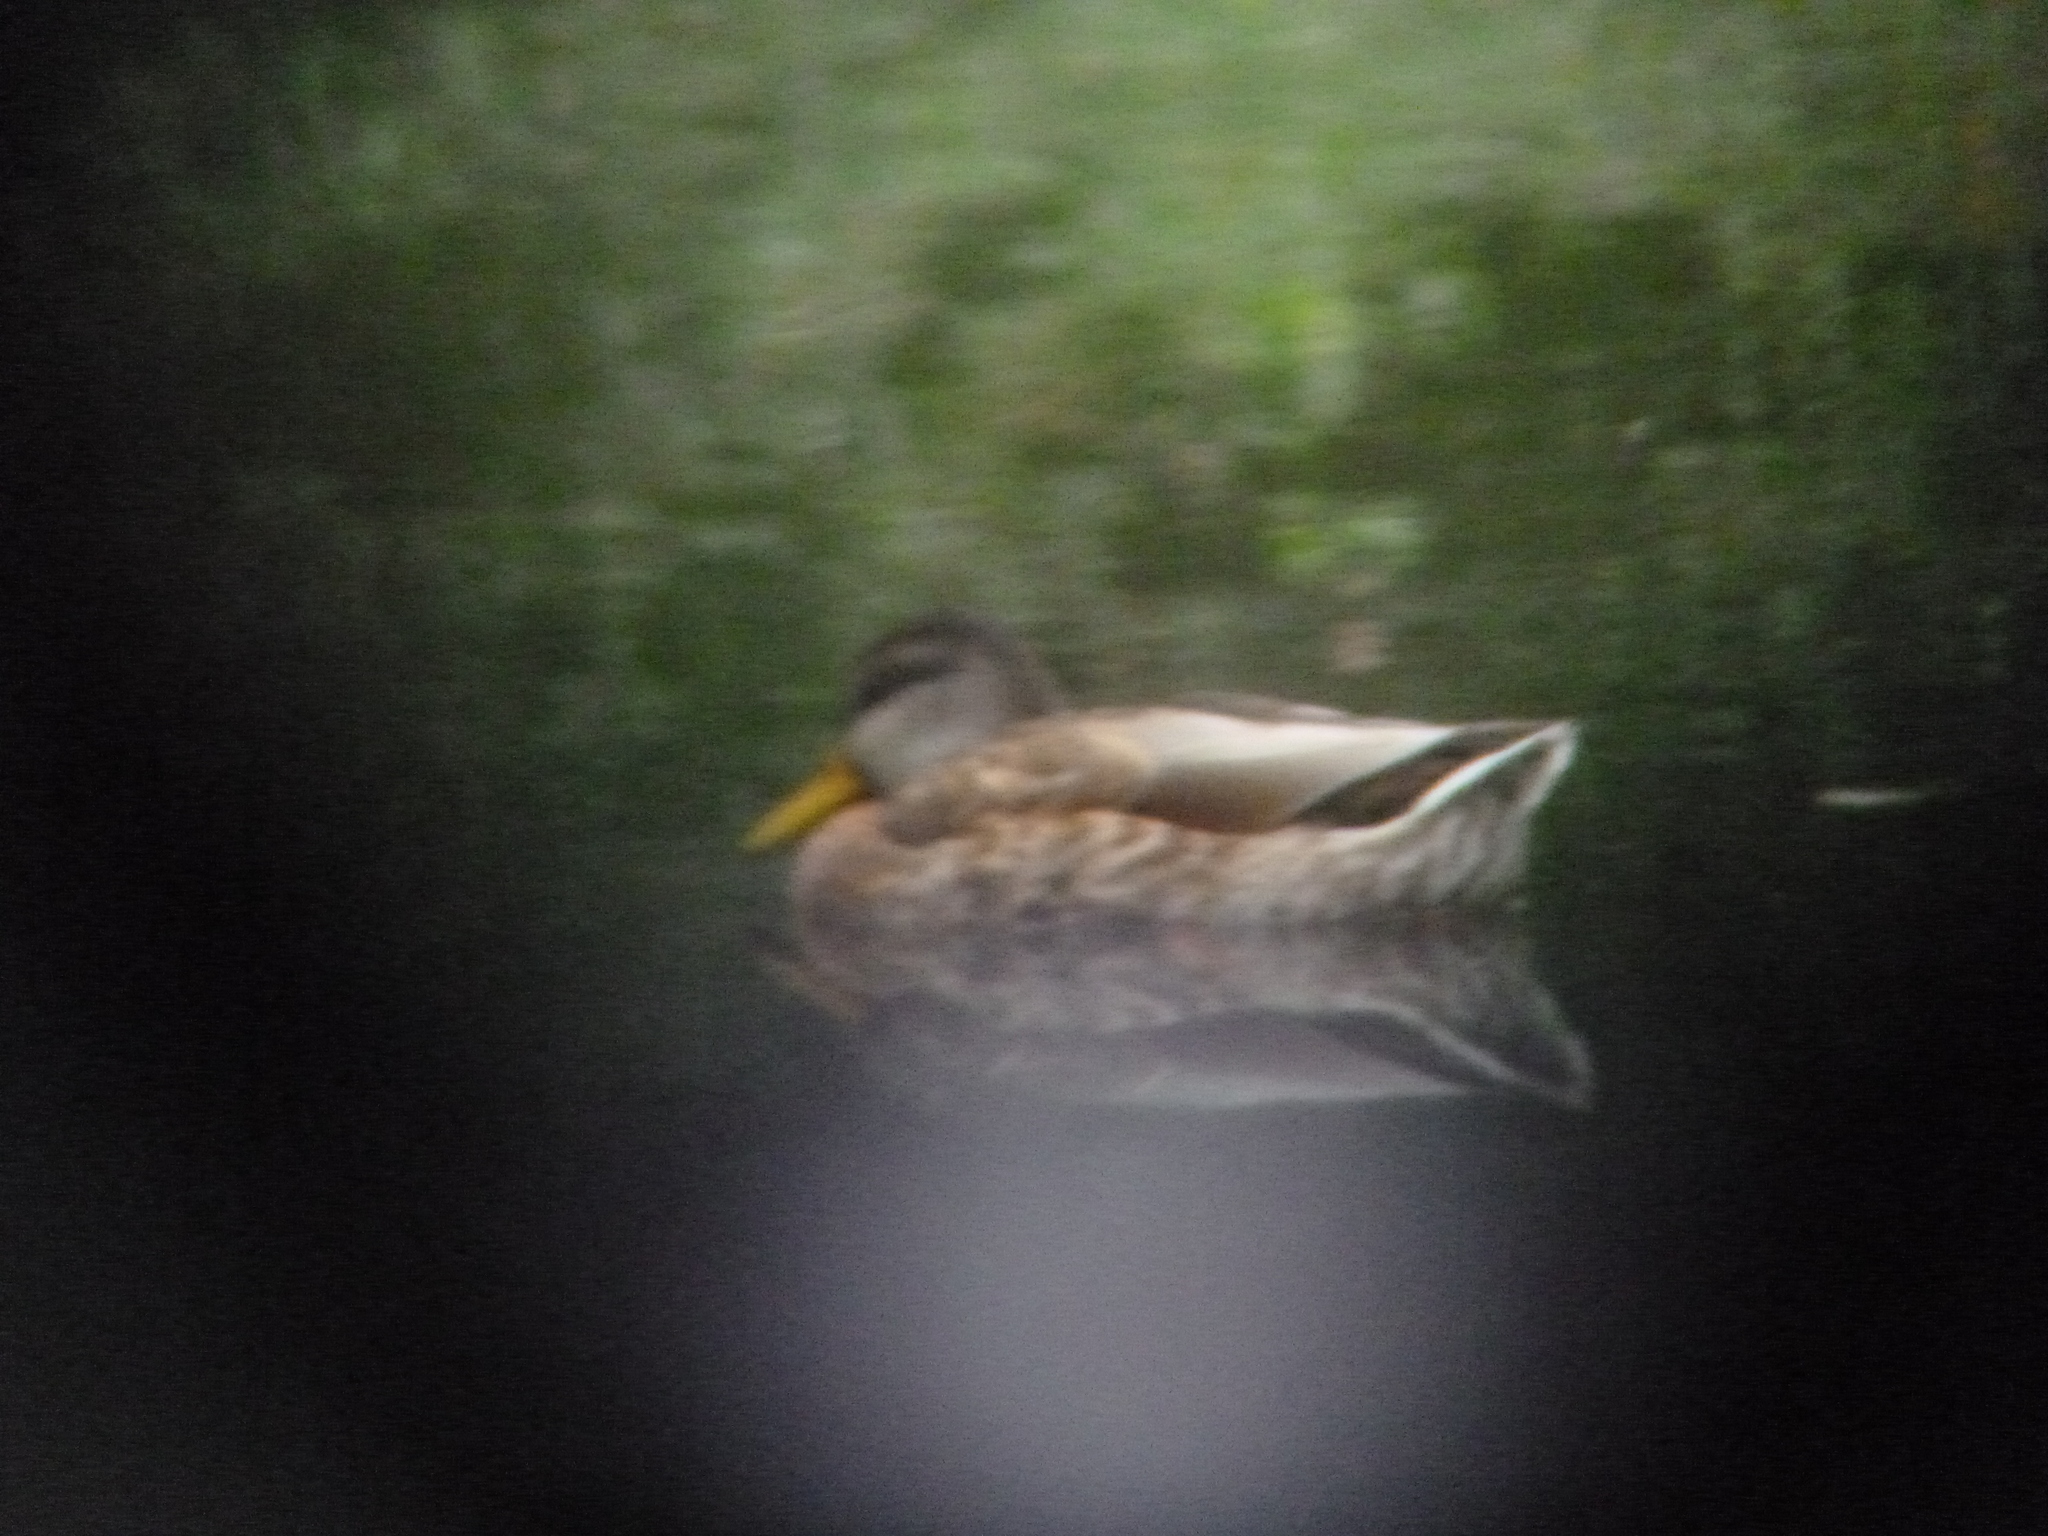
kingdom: Animalia
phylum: Chordata
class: Aves
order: Anseriformes
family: Anatidae
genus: Anas
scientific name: Anas platyrhynchos
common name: Mallard
